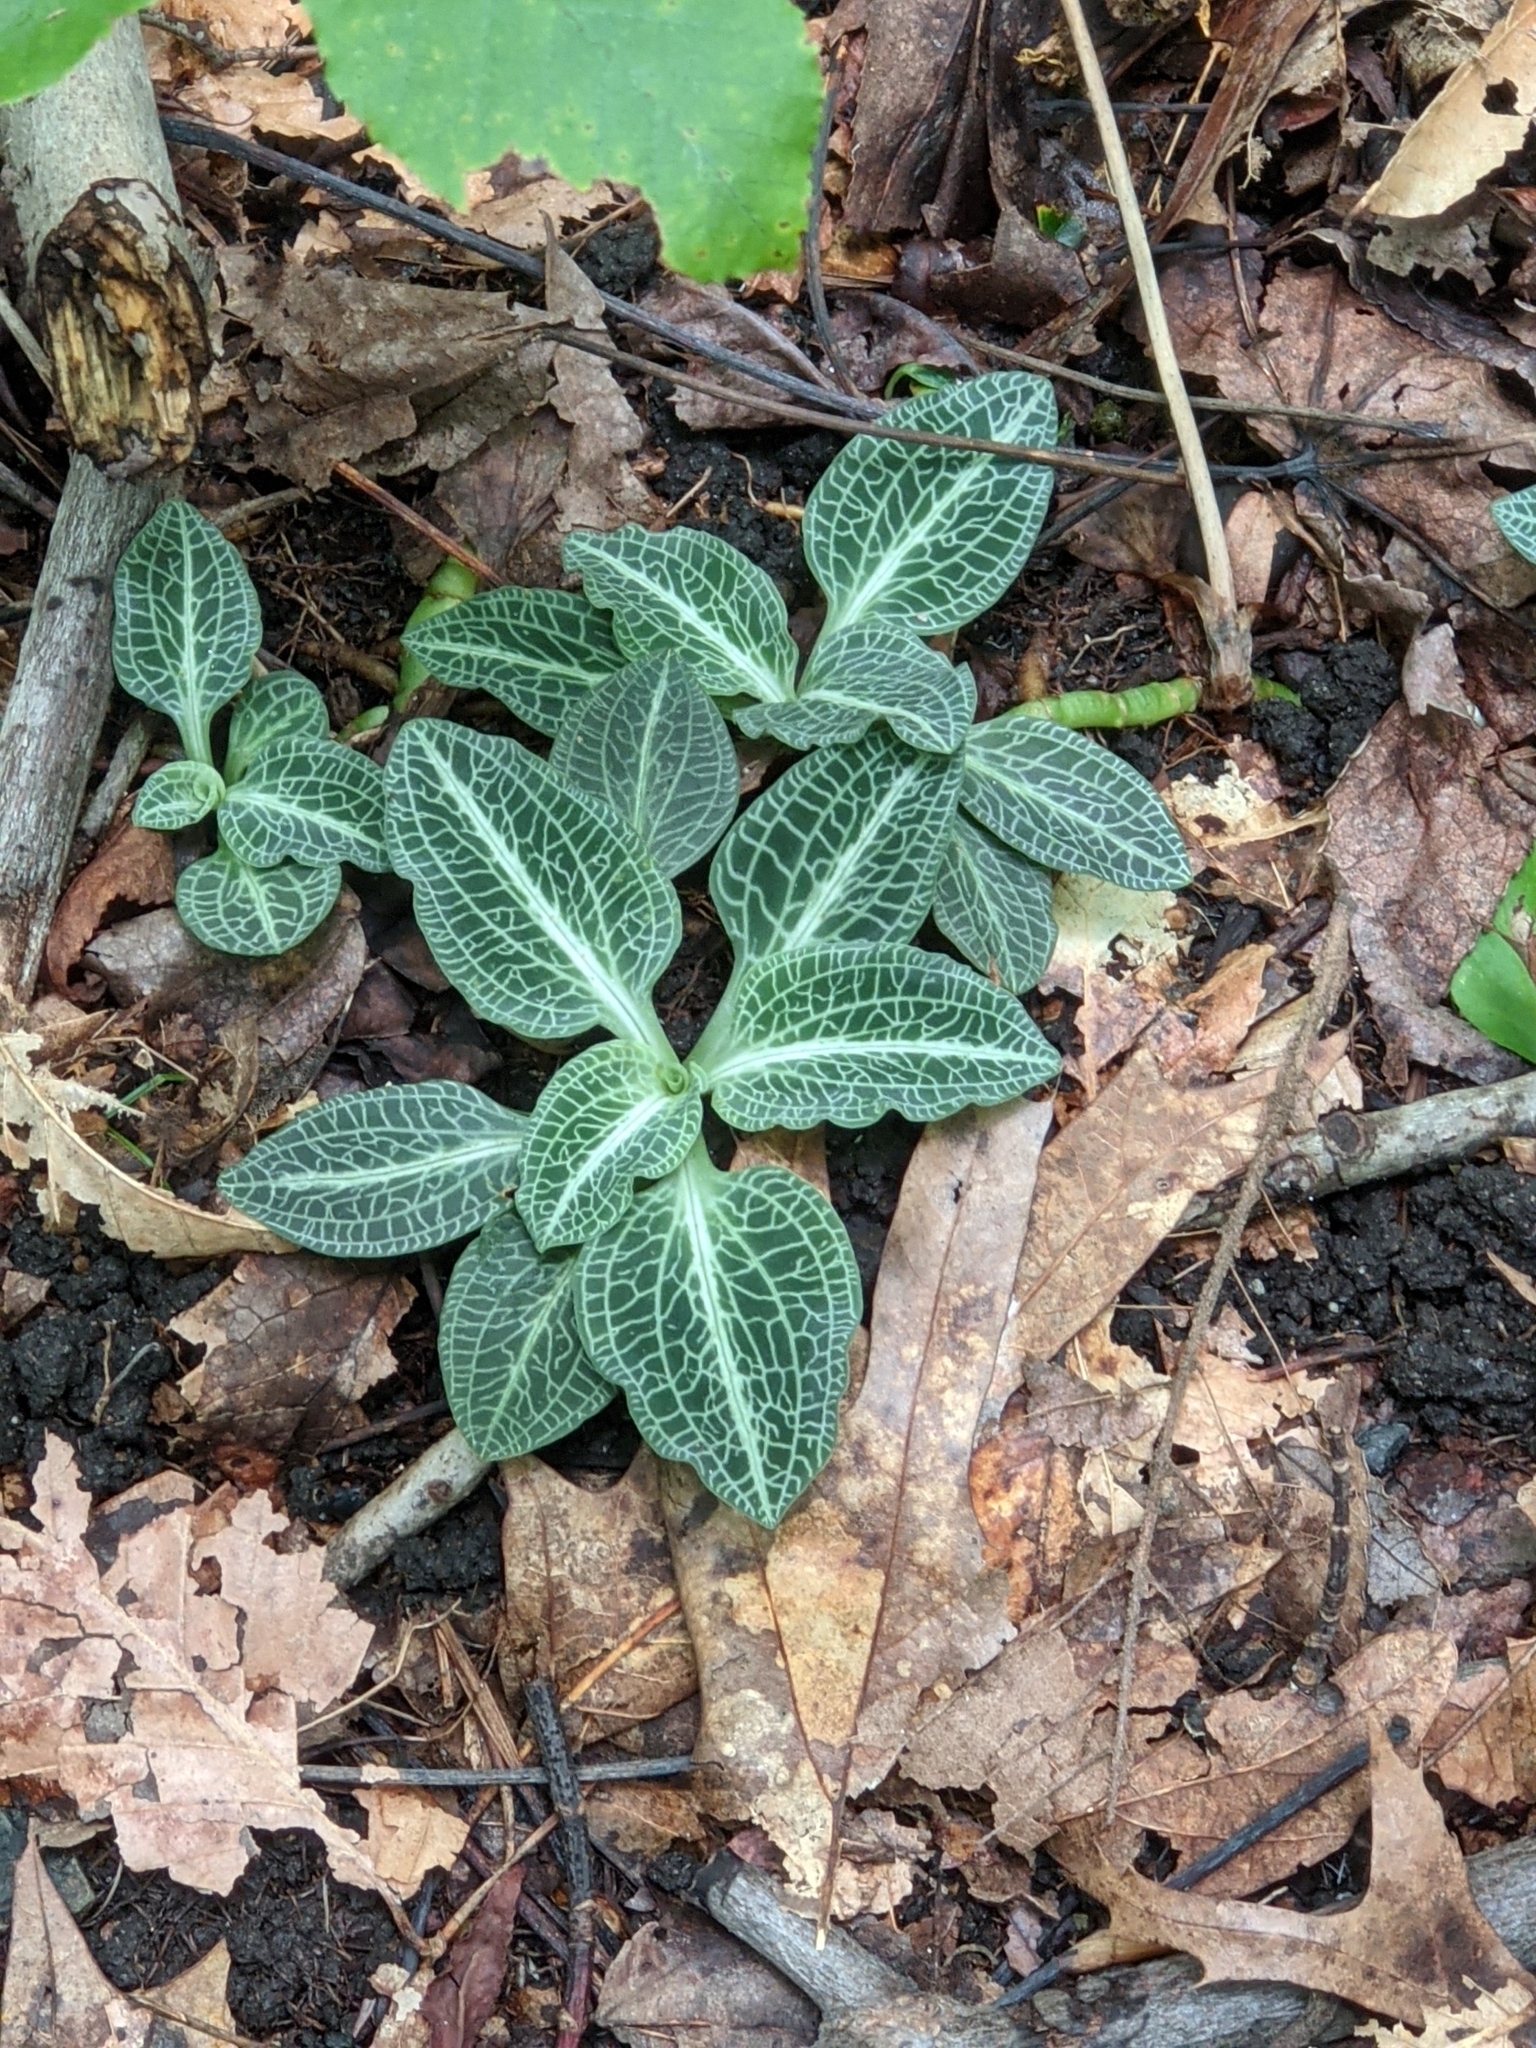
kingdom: Plantae
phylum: Tracheophyta
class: Liliopsida
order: Asparagales
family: Orchidaceae
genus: Goodyera
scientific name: Goodyera pubescens
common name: Downy rattlesnake-plantain
